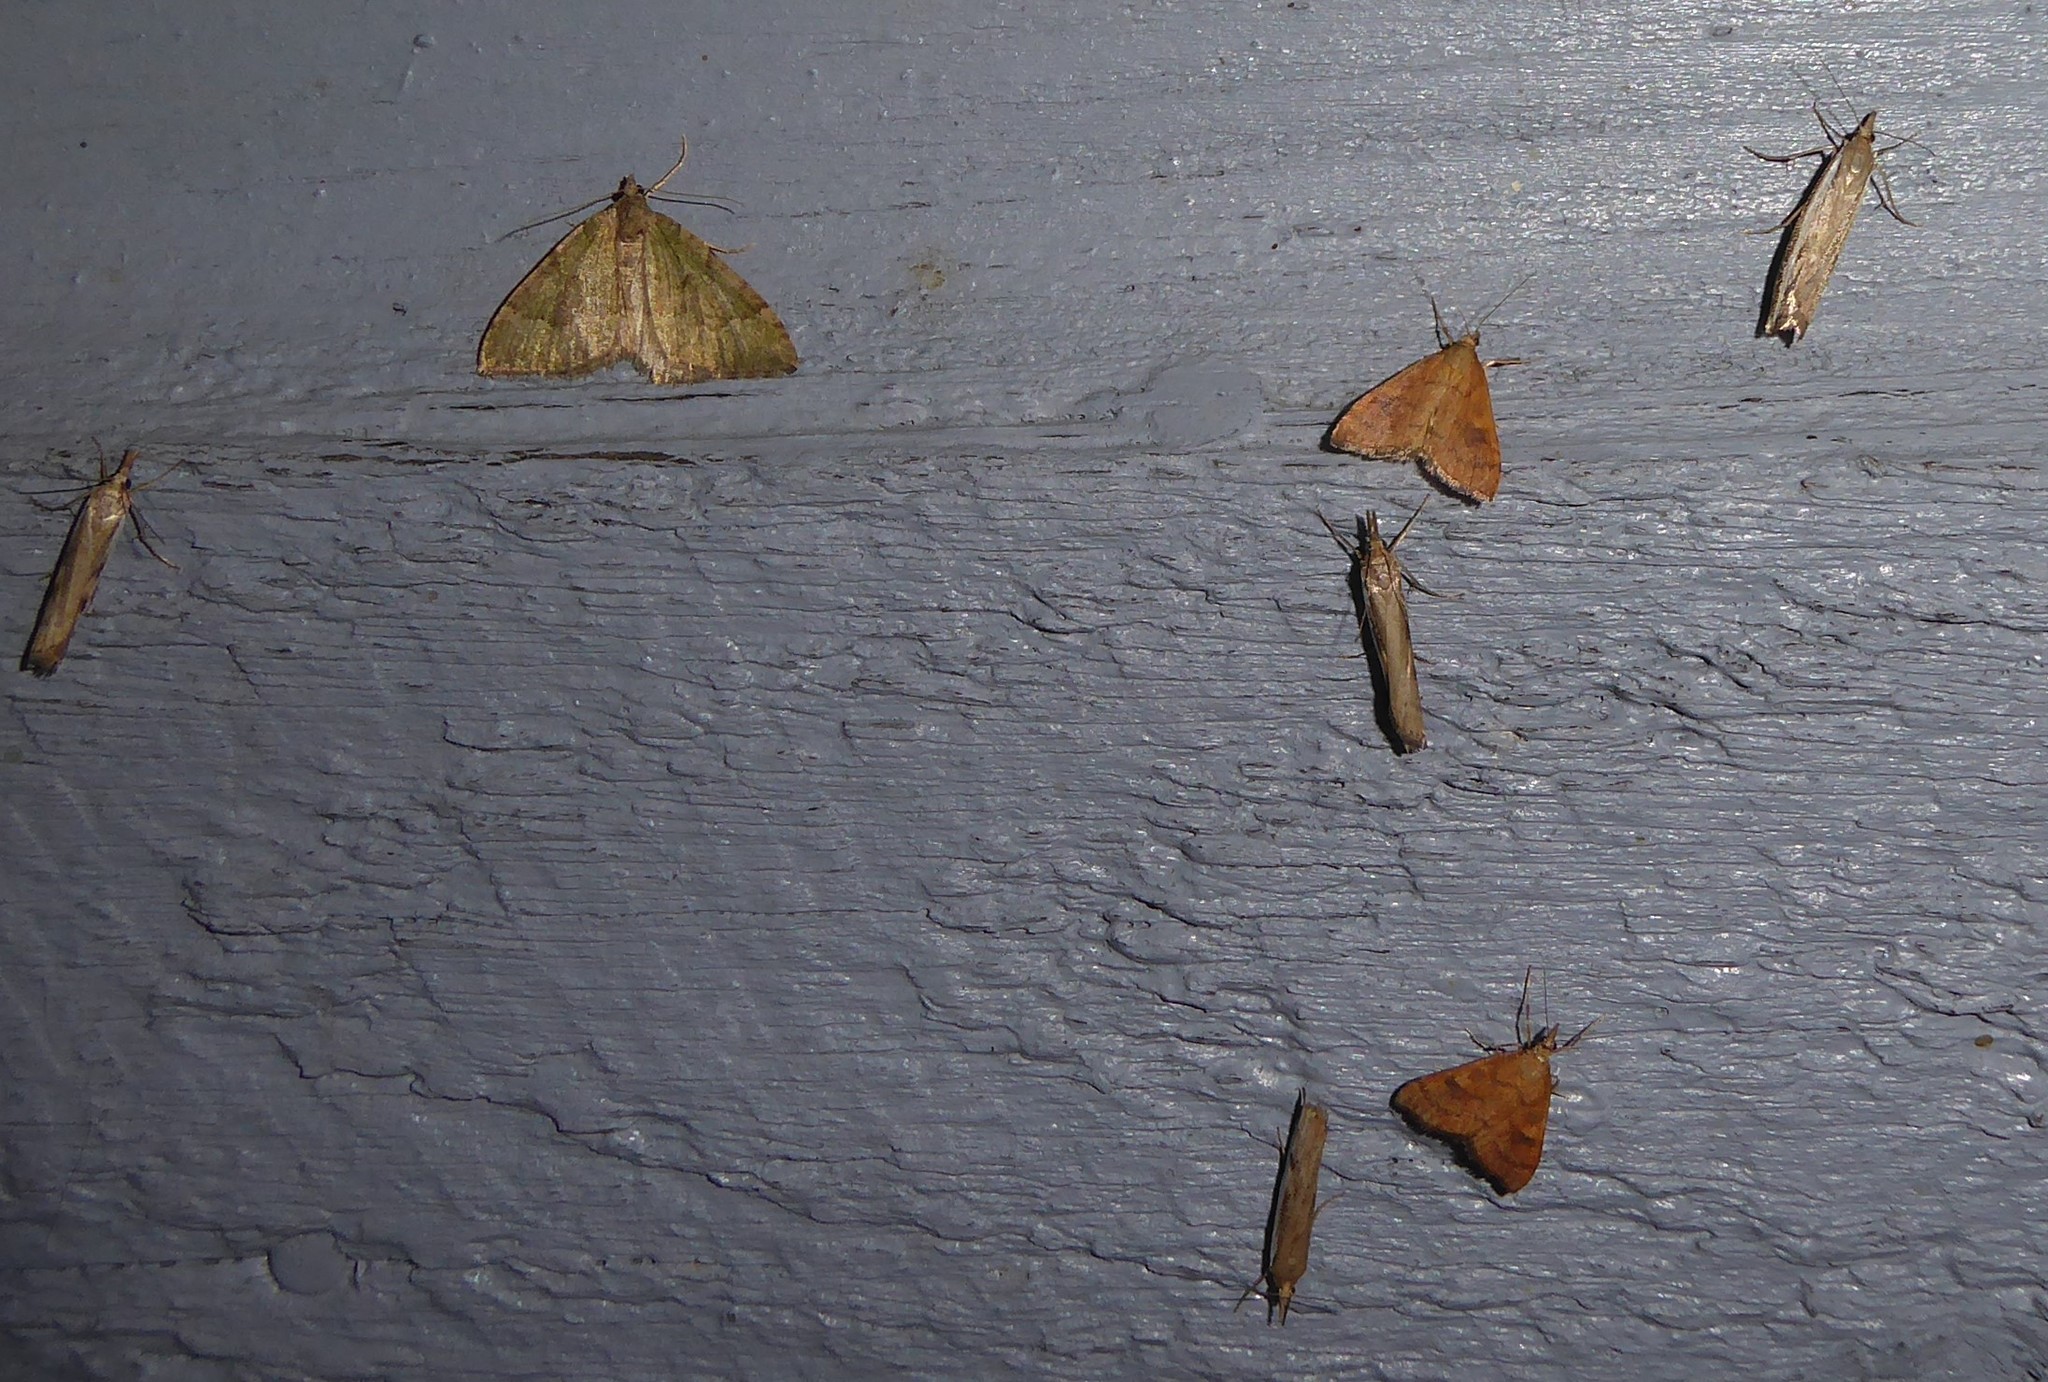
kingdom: Animalia
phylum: Arthropoda
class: Insecta
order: Lepidoptera
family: Crambidae
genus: Udea
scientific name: Udea Mnesictena flavidalis
